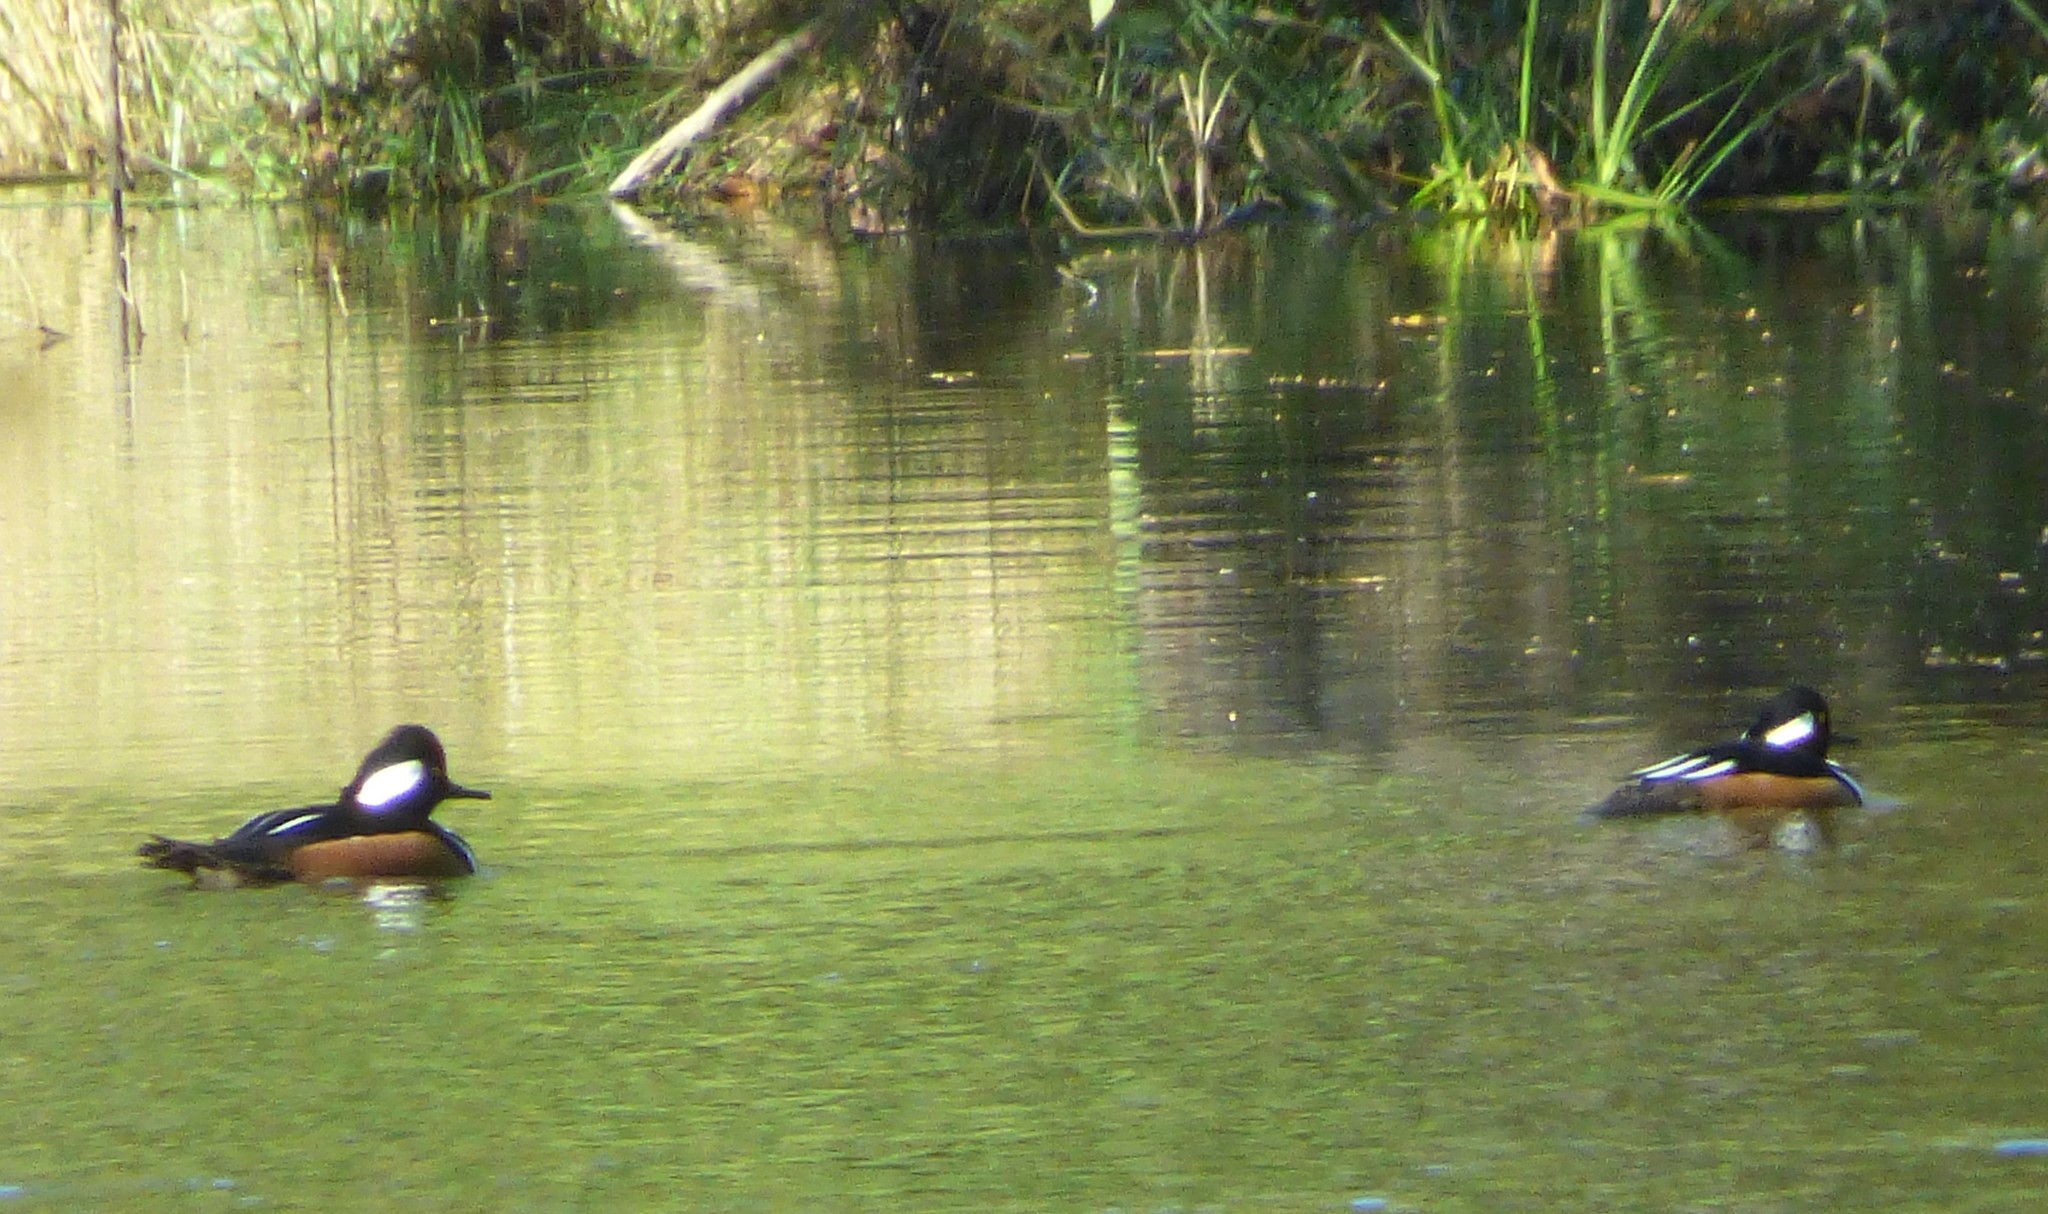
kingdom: Animalia
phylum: Chordata
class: Aves
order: Anseriformes
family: Anatidae
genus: Lophodytes
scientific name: Lophodytes cucullatus
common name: Hooded merganser
